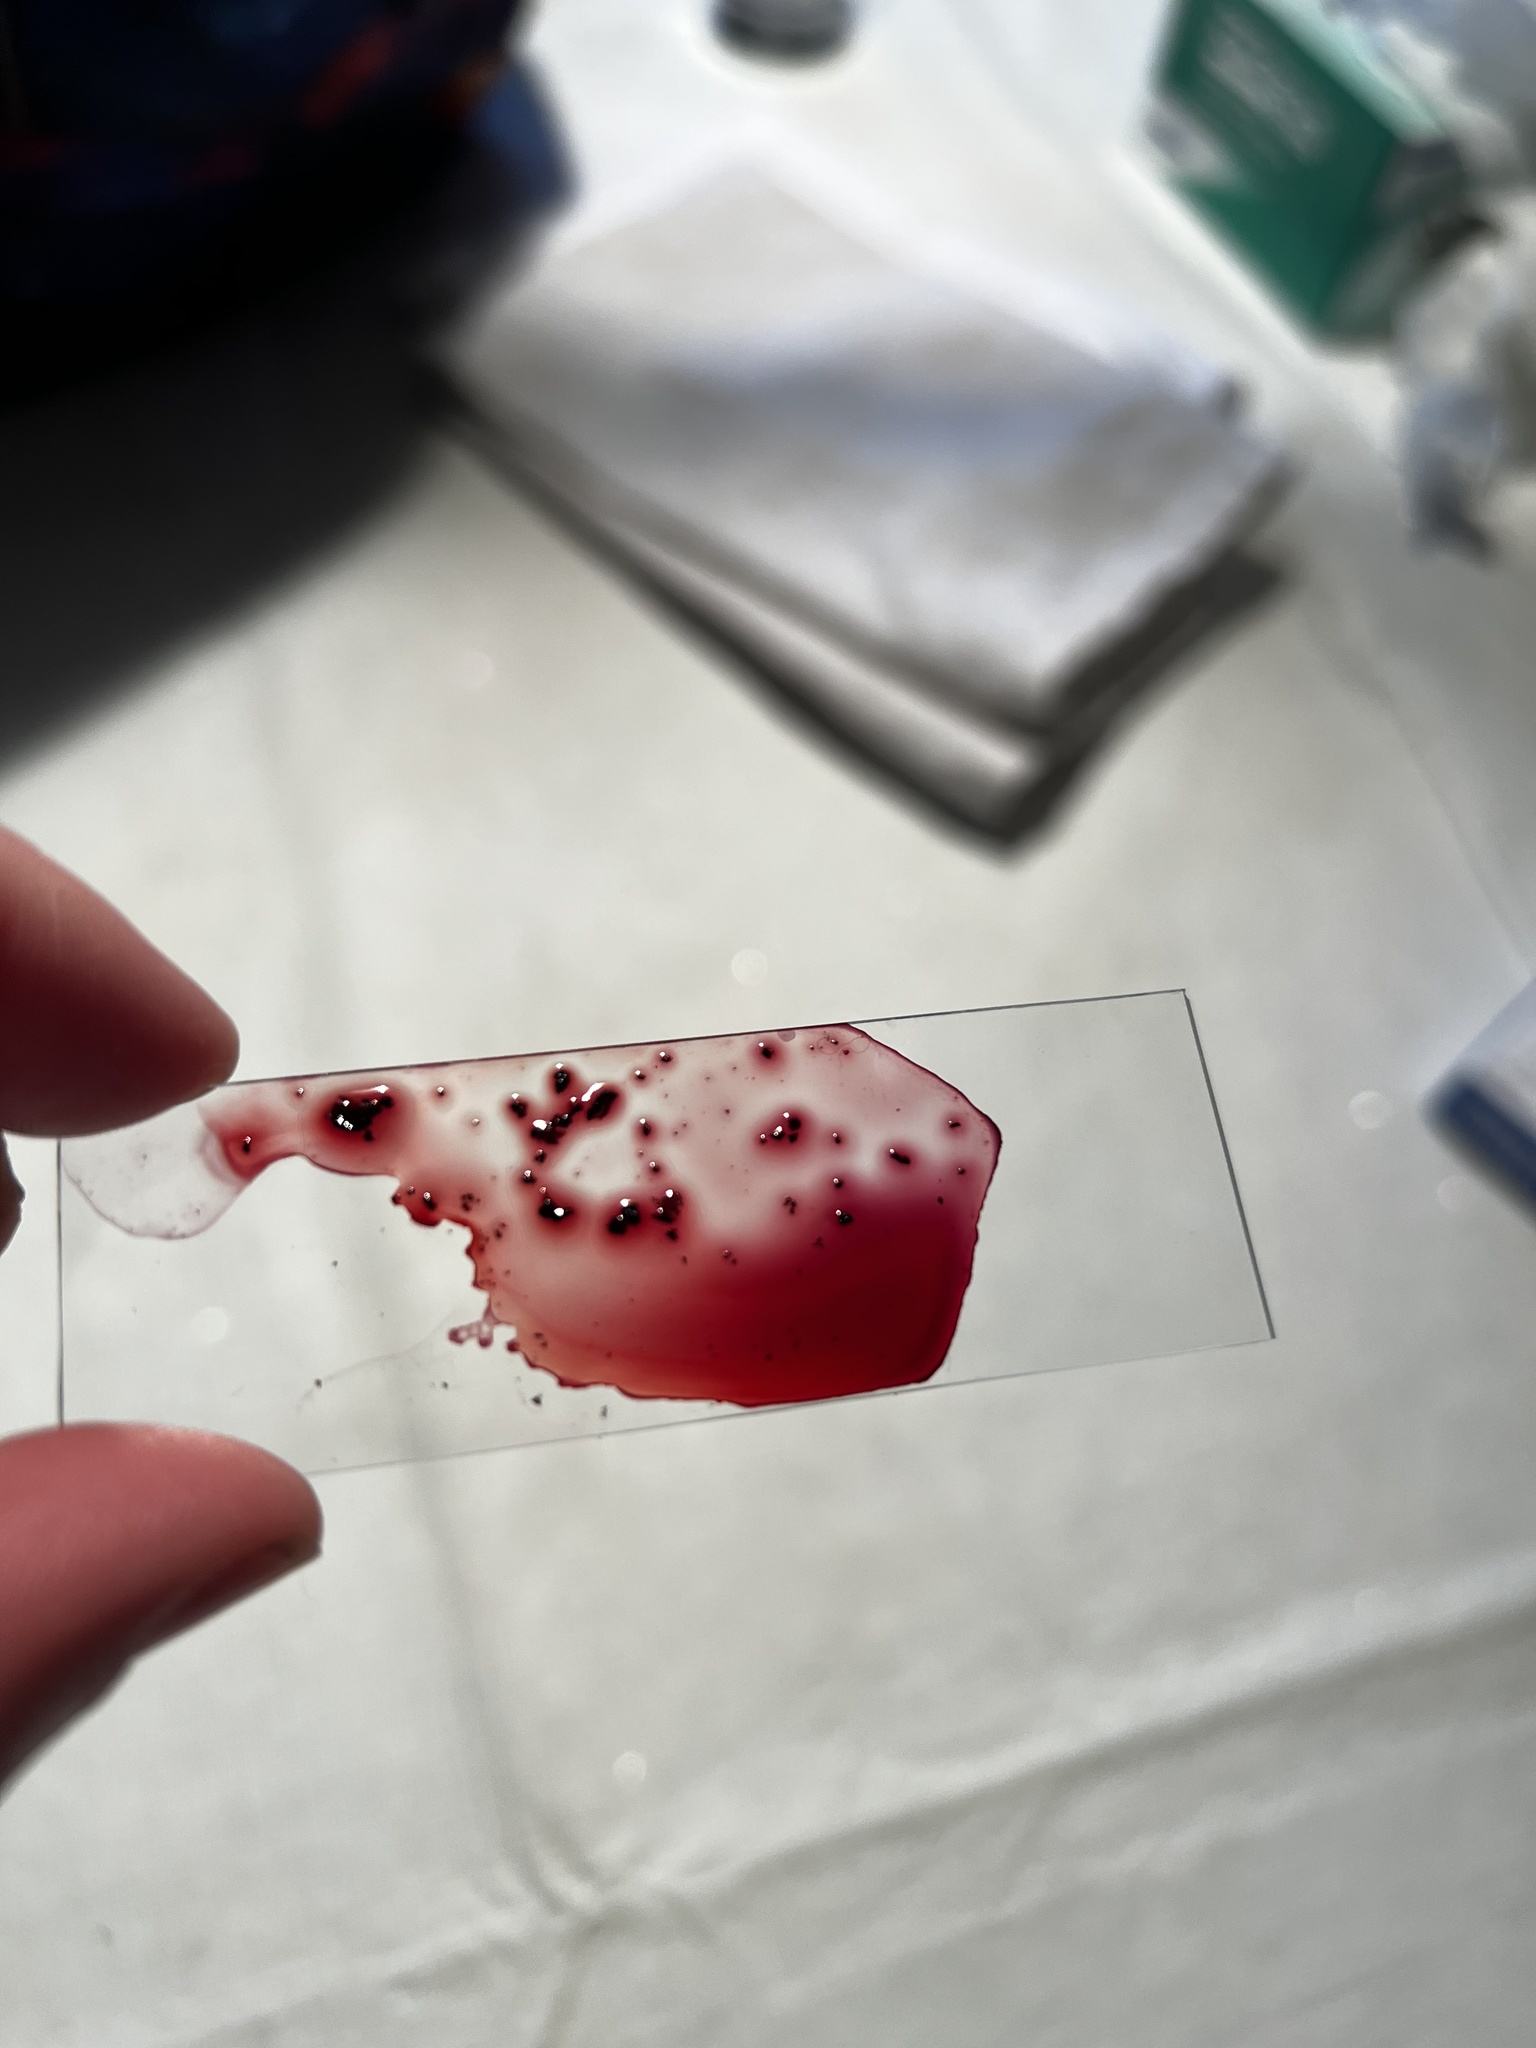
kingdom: Fungi
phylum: Ascomycota
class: Sordariomycetes
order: Diaporthales
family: Cryphonectriaceae
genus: Amphilogia
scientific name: Amphilogia gyrosa
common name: Orange hobnail canker
